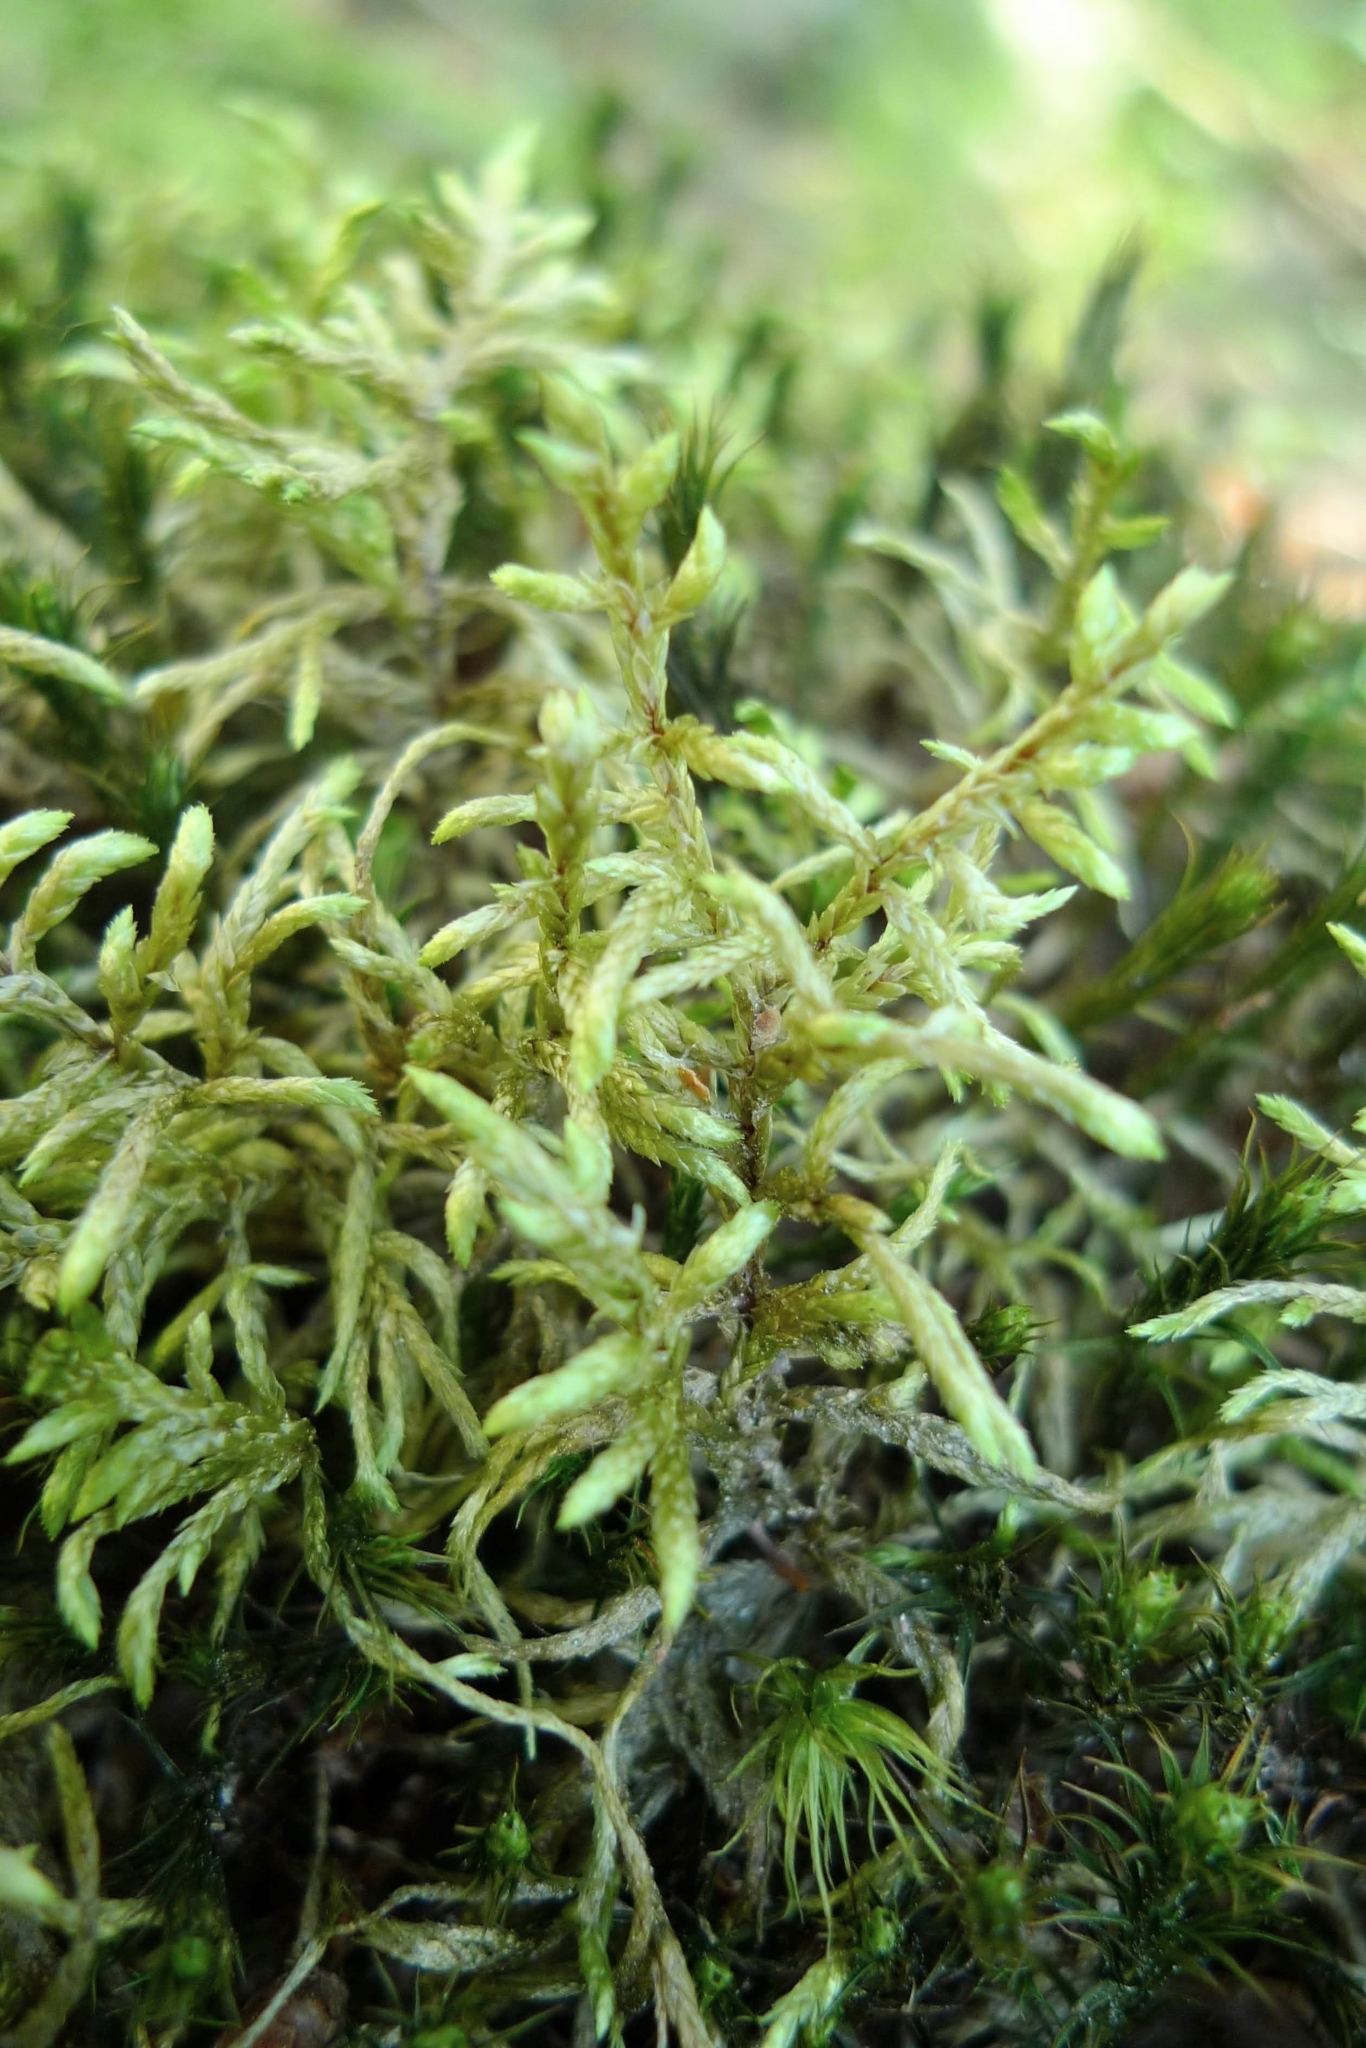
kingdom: Plantae
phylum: Bryophyta
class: Bryopsida
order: Hypnales
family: Hylocomiaceae
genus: Pleurozium
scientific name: Pleurozium schreberi
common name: Red-stemmed feather moss
